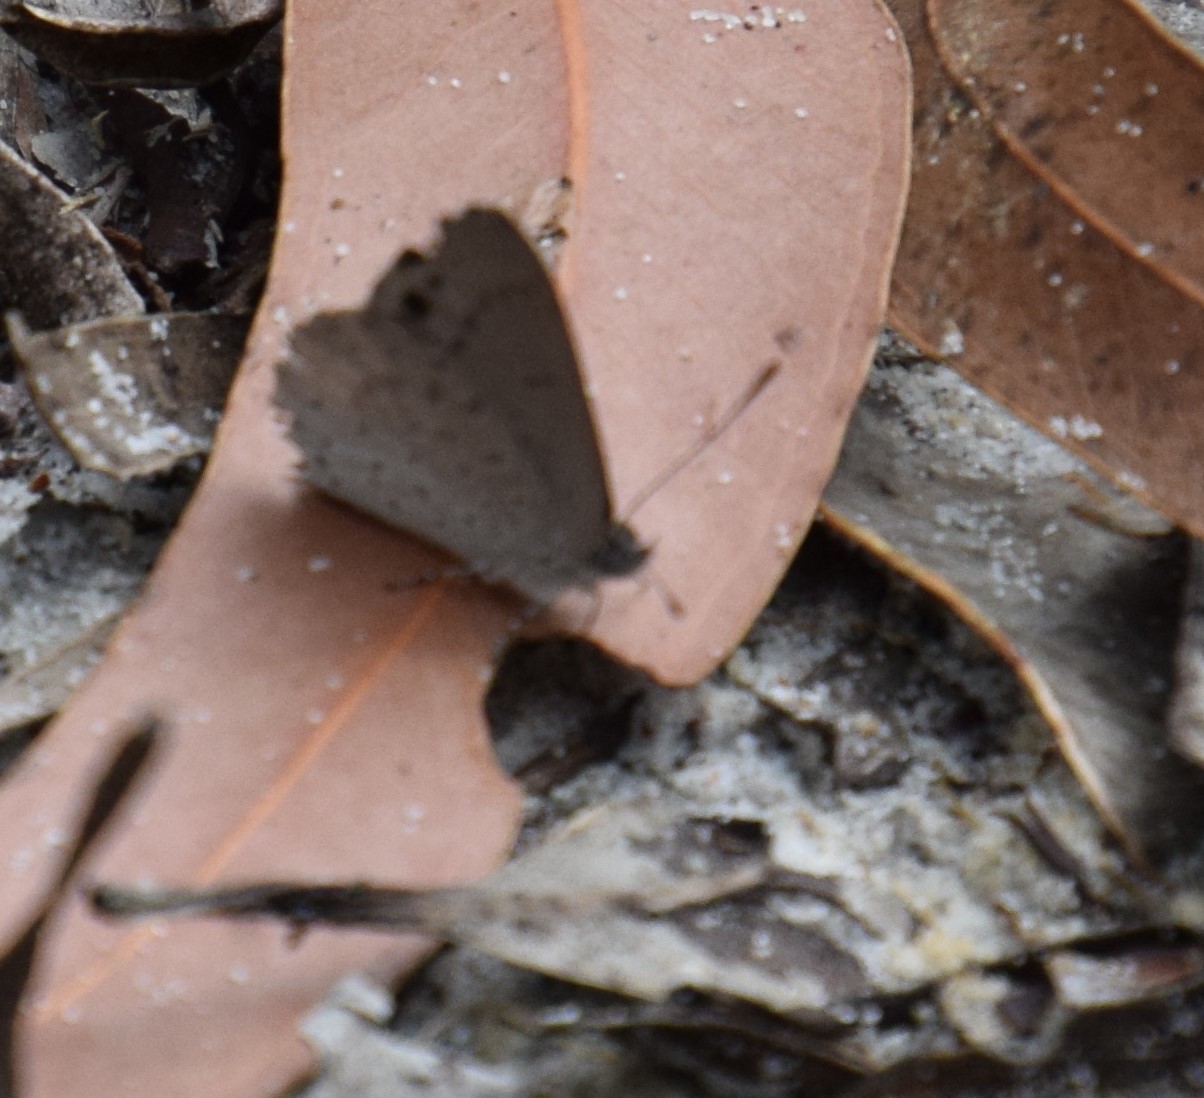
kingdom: Animalia
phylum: Arthropoda
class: Insecta
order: Lepidoptera
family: Lycaenidae
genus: Candalides
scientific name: Candalides
